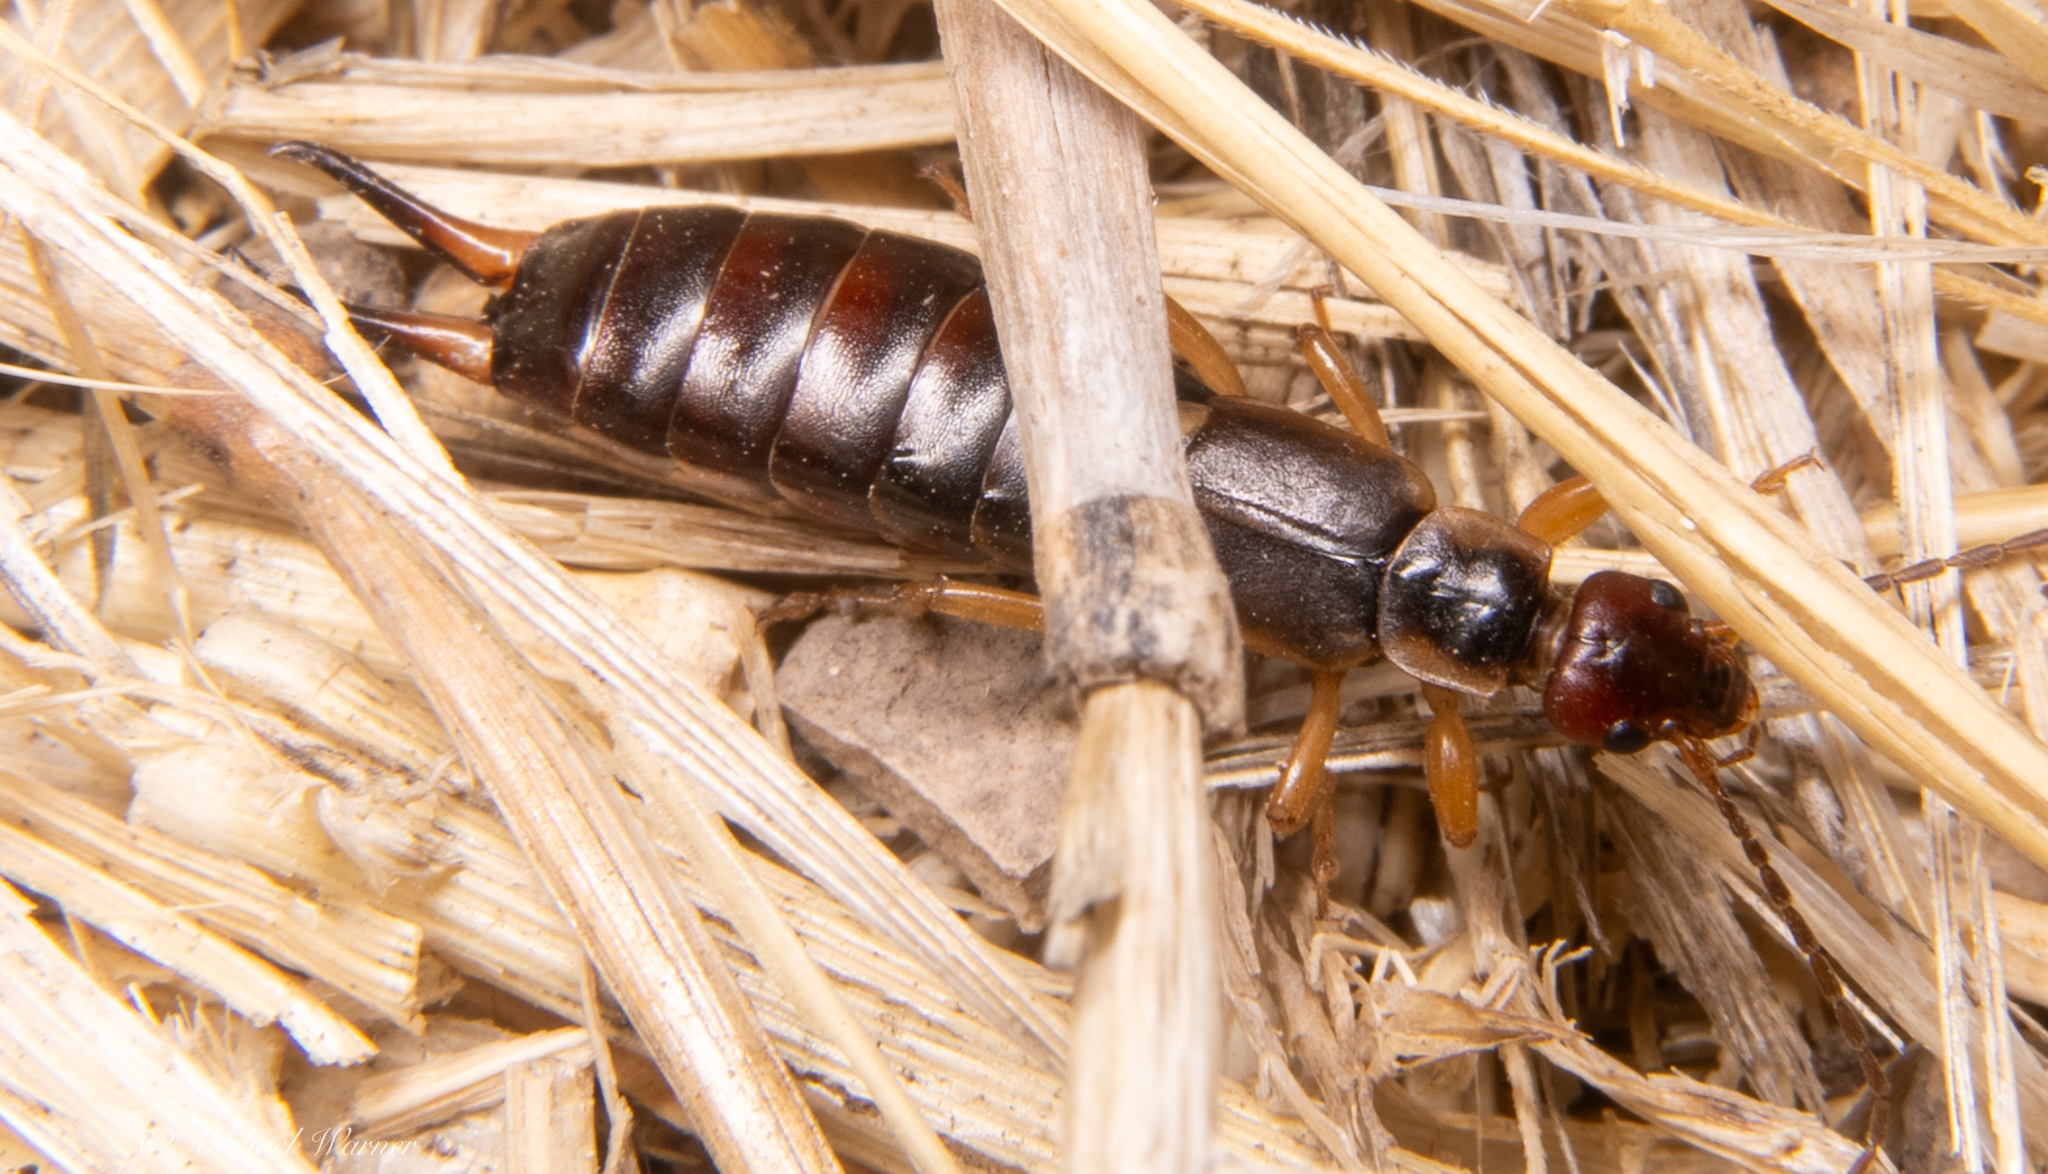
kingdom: Animalia
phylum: Arthropoda
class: Insecta
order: Dermaptera
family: Forficulidae
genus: Forficula
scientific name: Forficula dentata
